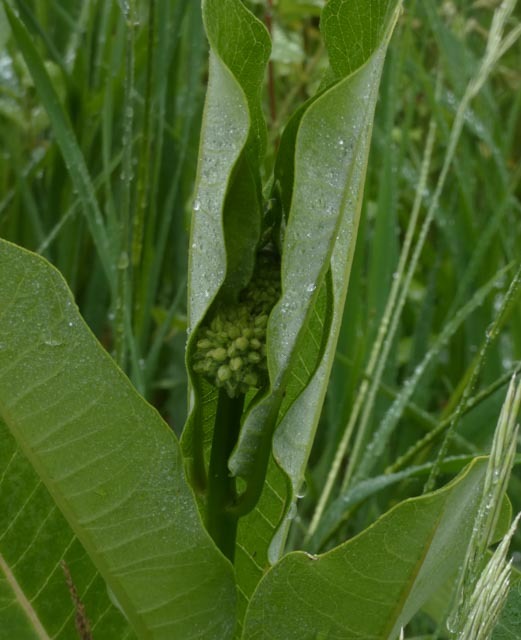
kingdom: Plantae
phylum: Tracheophyta
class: Magnoliopsida
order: Gentianales
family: Apocynaceae
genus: Asclepias
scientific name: Asclepias syriaca
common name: Common milkweed
